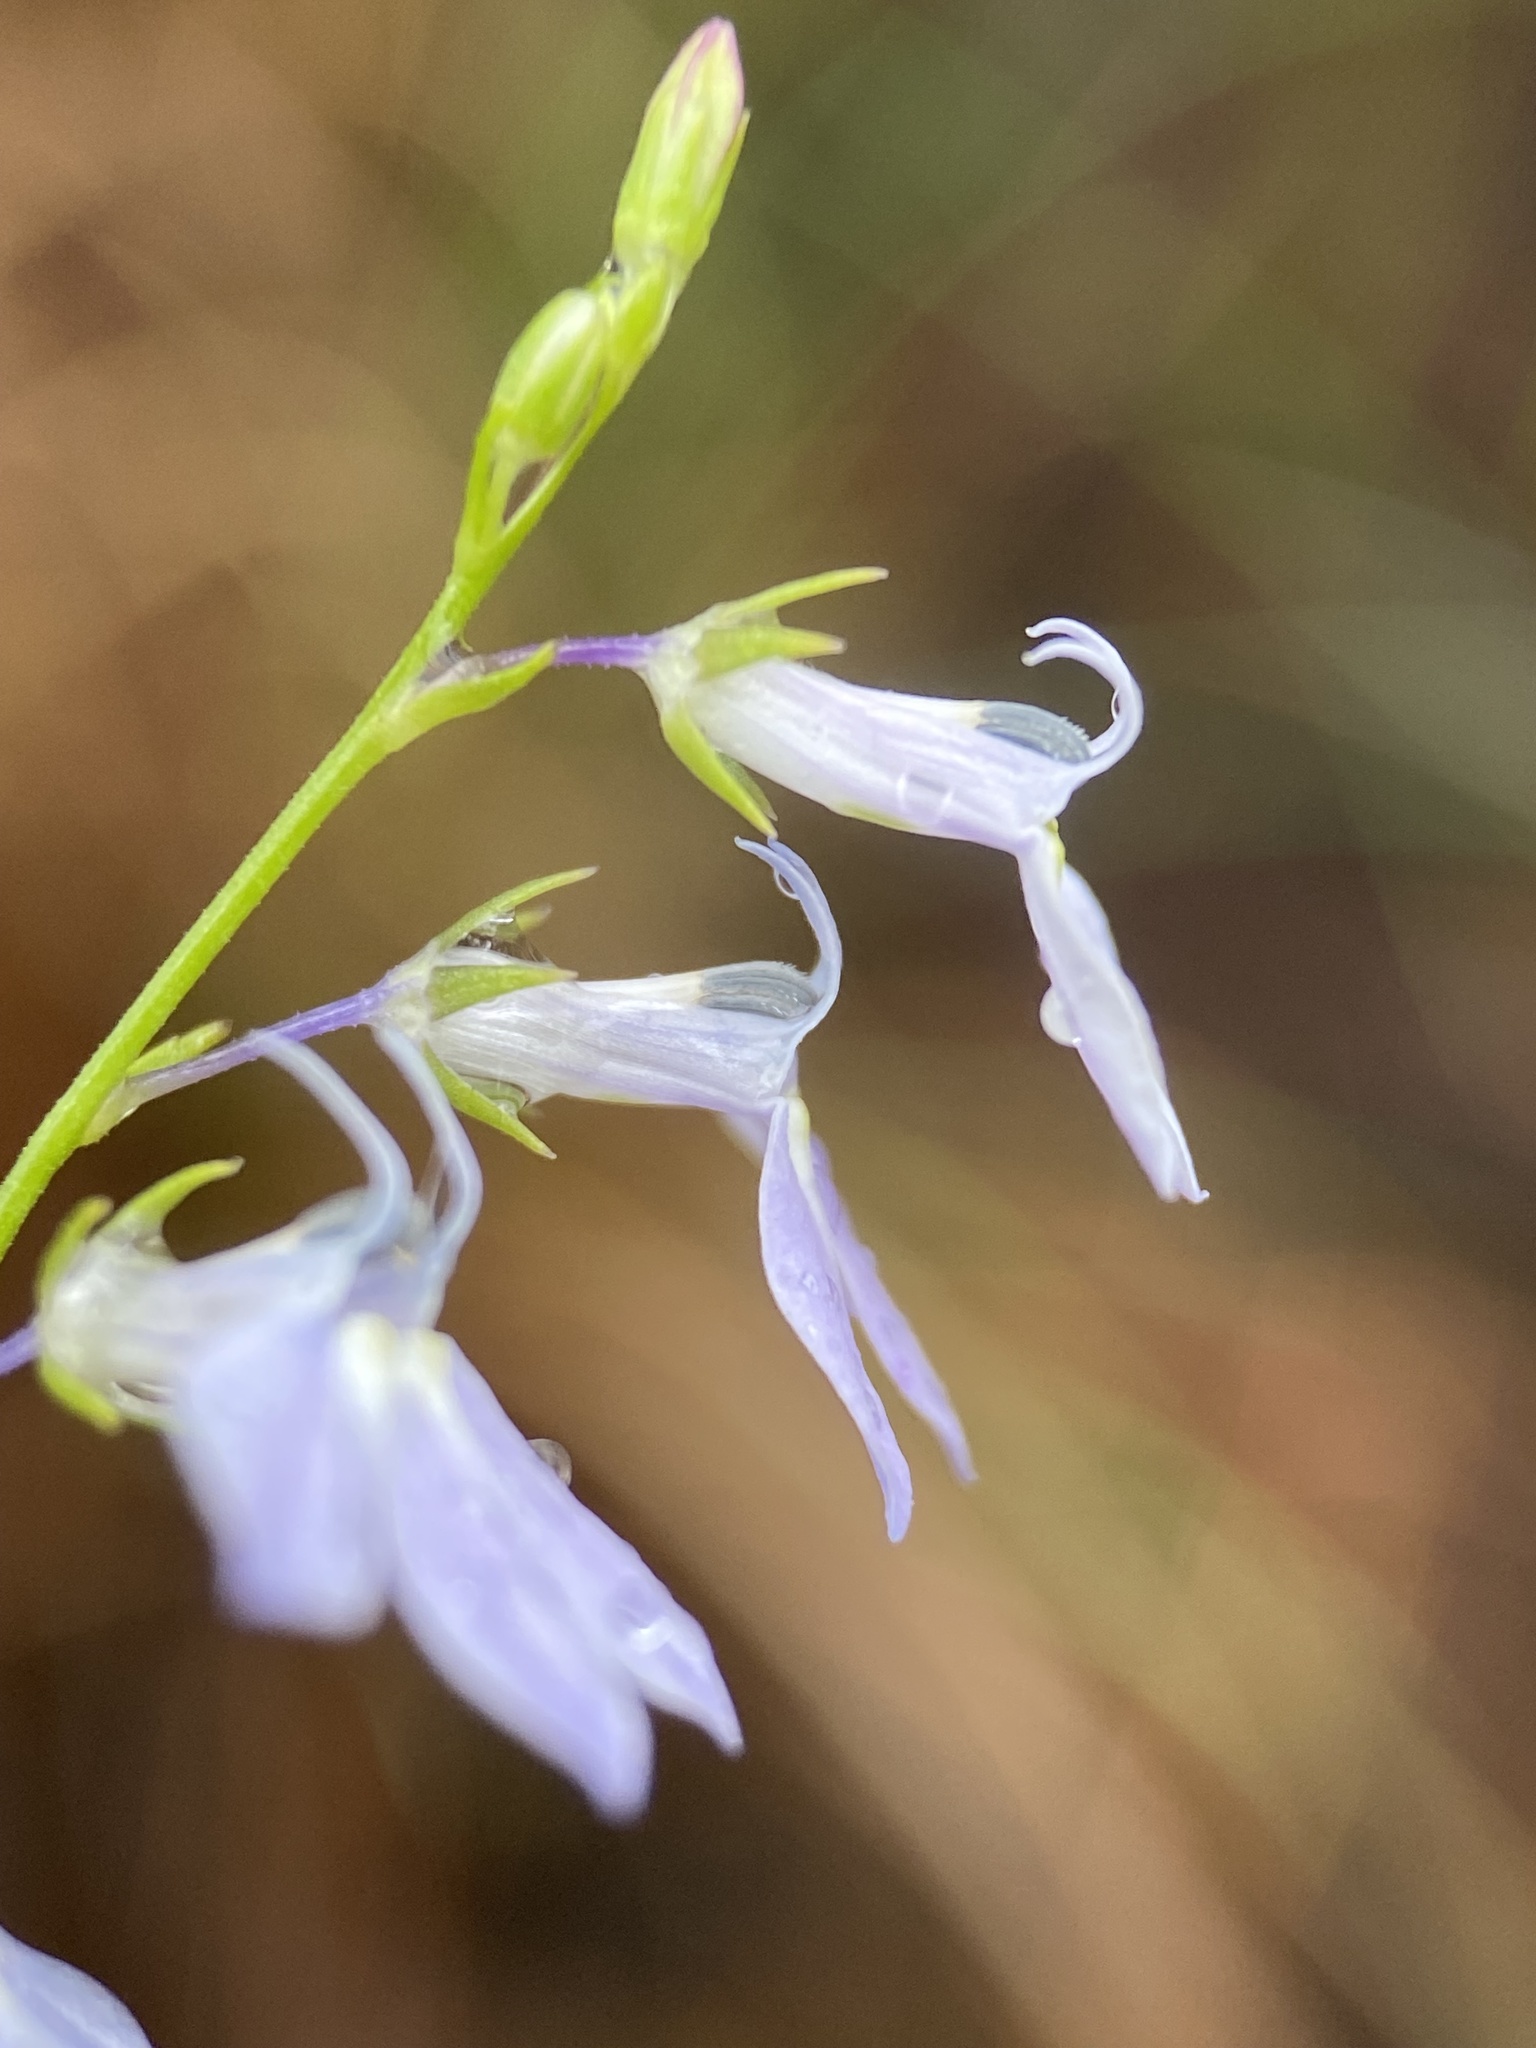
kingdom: Plantae
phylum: Tracheophyta
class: Magnoliopsida
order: Asterales
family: Campanulaceae
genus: Lobelia
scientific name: Lobelia nuttallii
